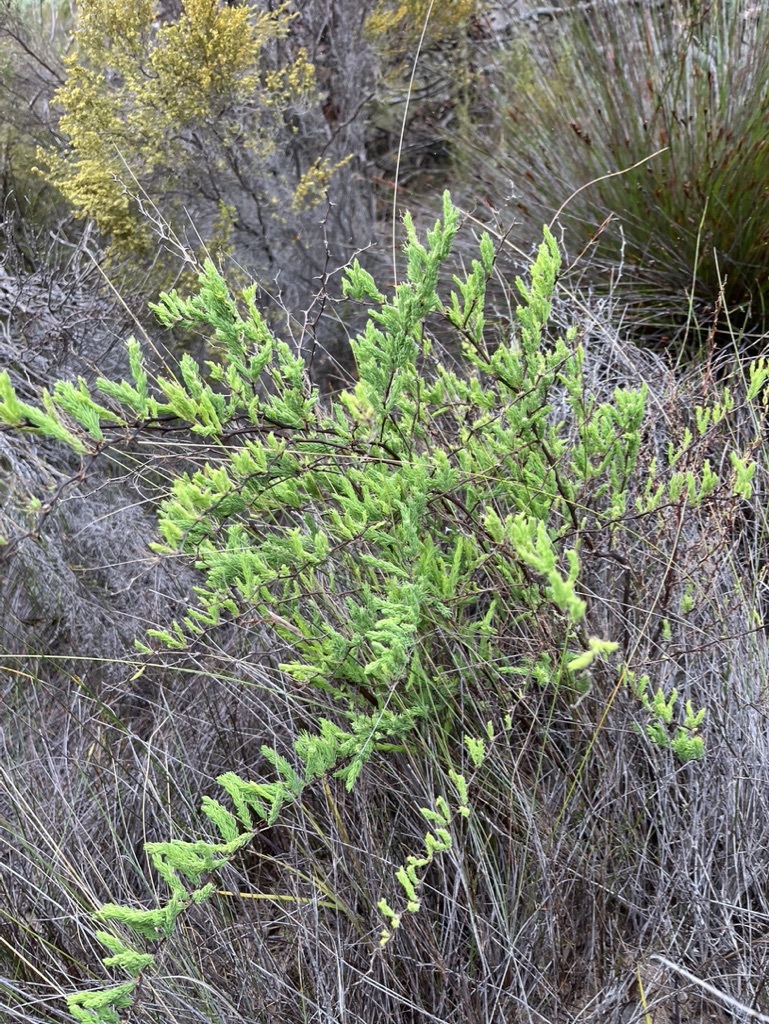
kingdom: Plantae
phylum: Tracheophyta
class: Liliopsida
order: Asparagales
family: Asparagaceae
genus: Asparagus
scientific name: Asparagus rubicundus
